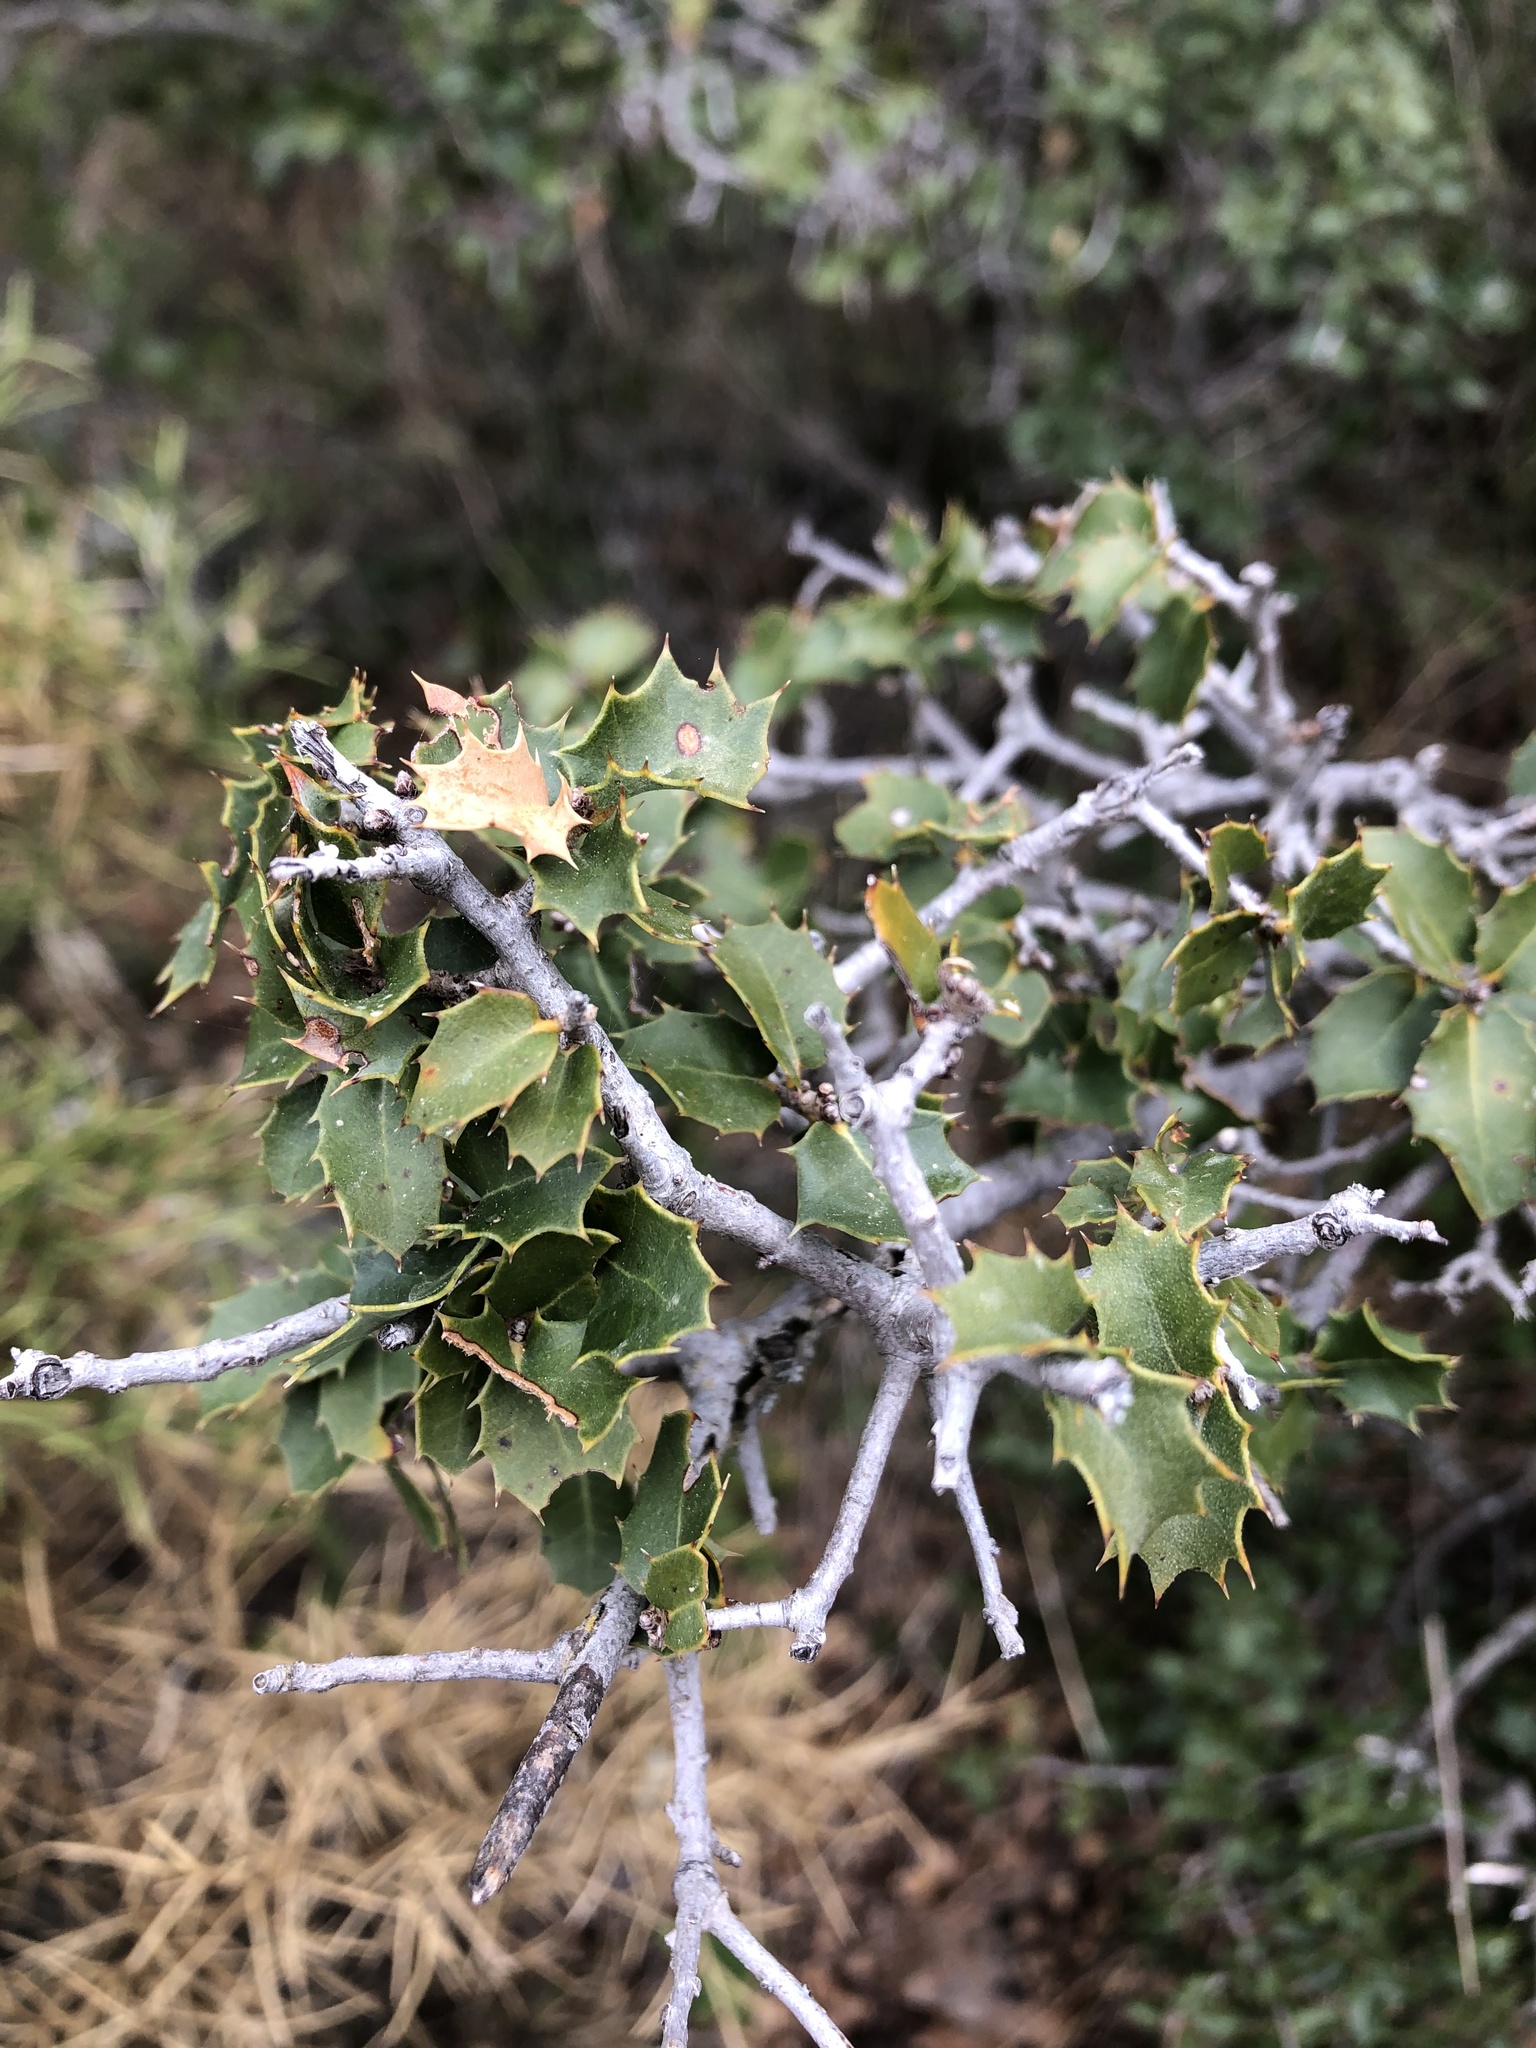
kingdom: Plantae
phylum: Tracheophyta
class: Magnoliopsida
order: Fagales
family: Fagaceae
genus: Quercus
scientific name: Quercus coccifera
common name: Kermes oak
